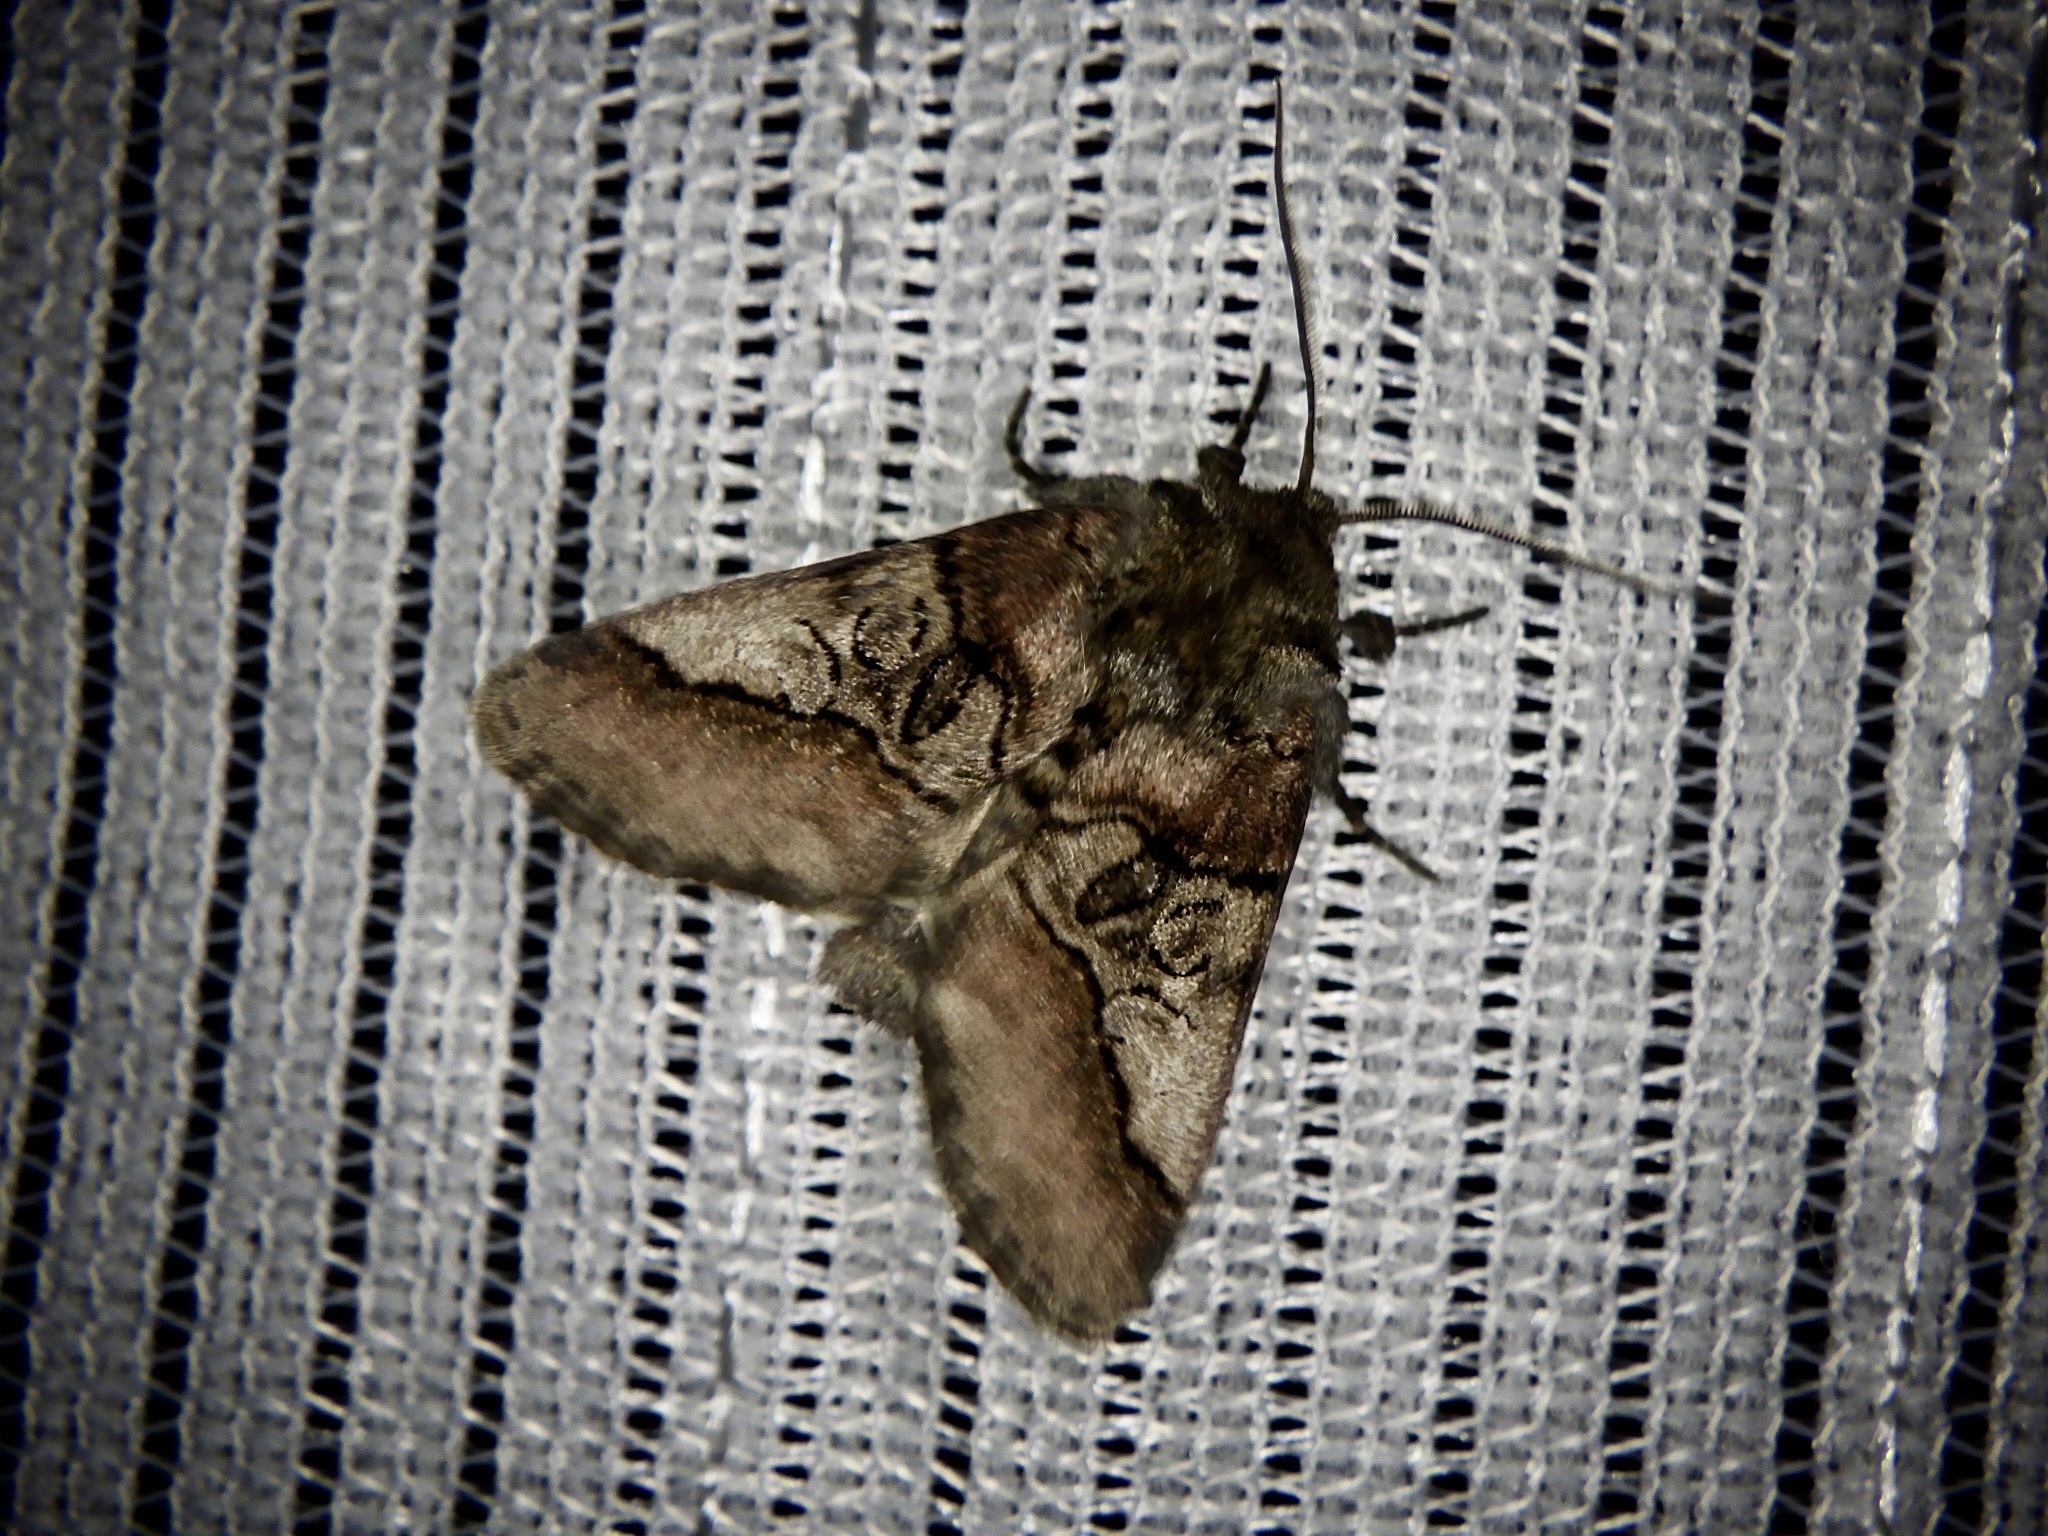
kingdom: Animalia
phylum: Arthropoda
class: Insecta
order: Lepidoptera
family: Noctuidae
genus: Protomiselia
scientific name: Protomiselia bilinea
